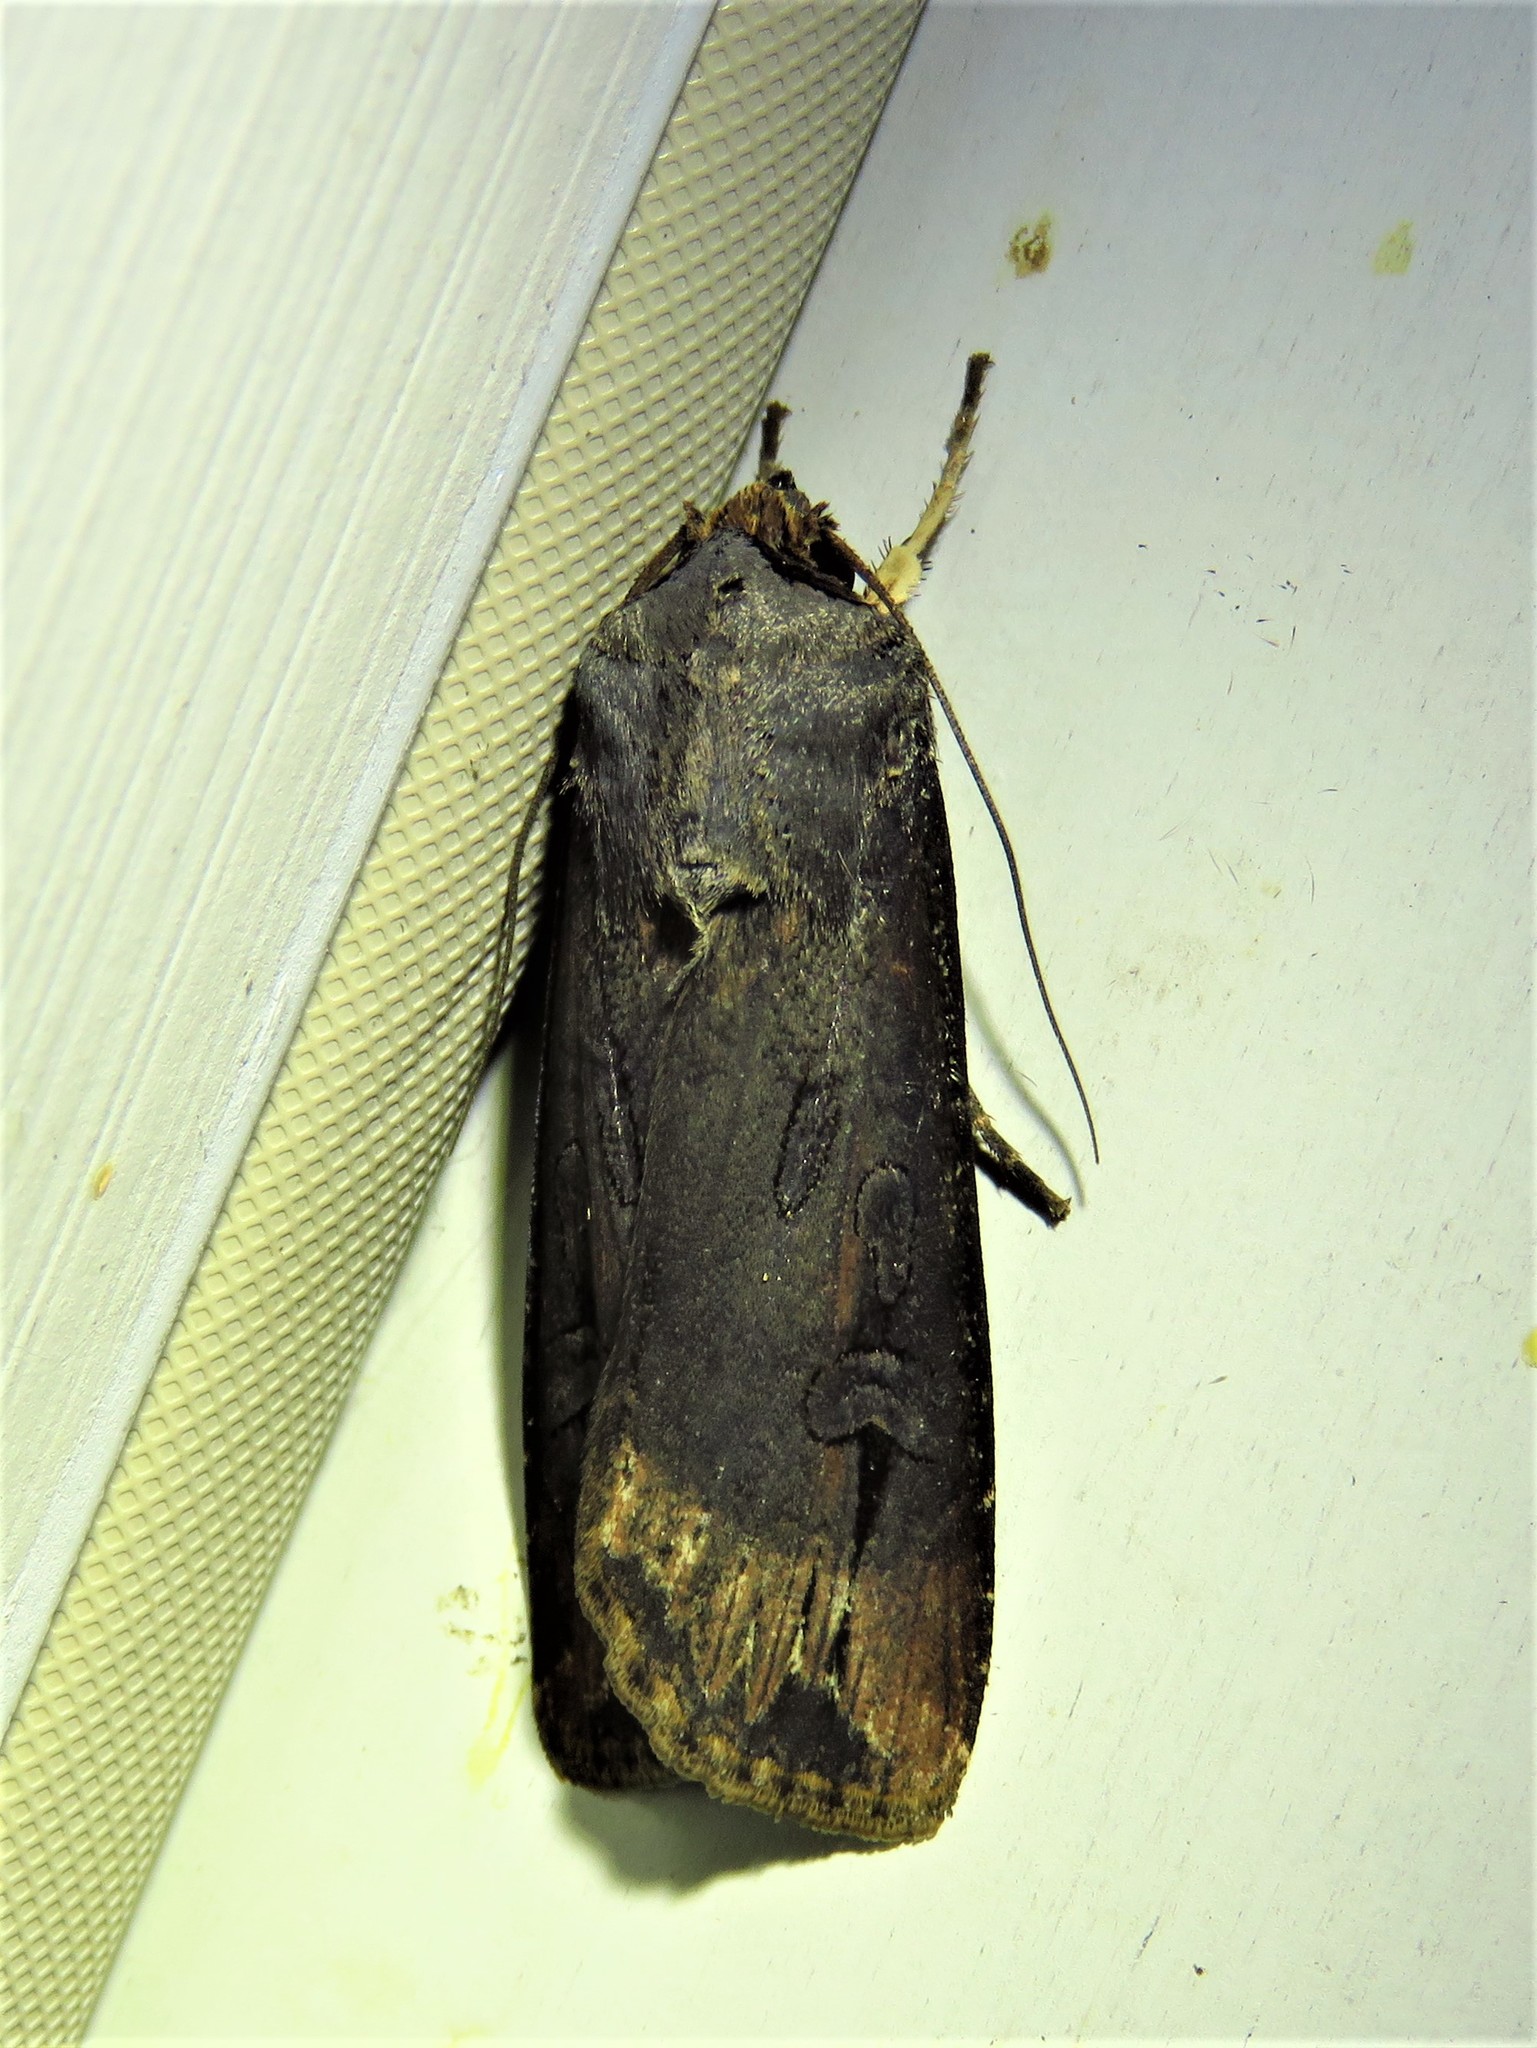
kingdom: Animalia
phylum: Arthropoda
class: Insecta
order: Lepidoptera
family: Noctuidae
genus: Agrotis
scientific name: Agrotis ipsilon
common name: Dark sword-grass
